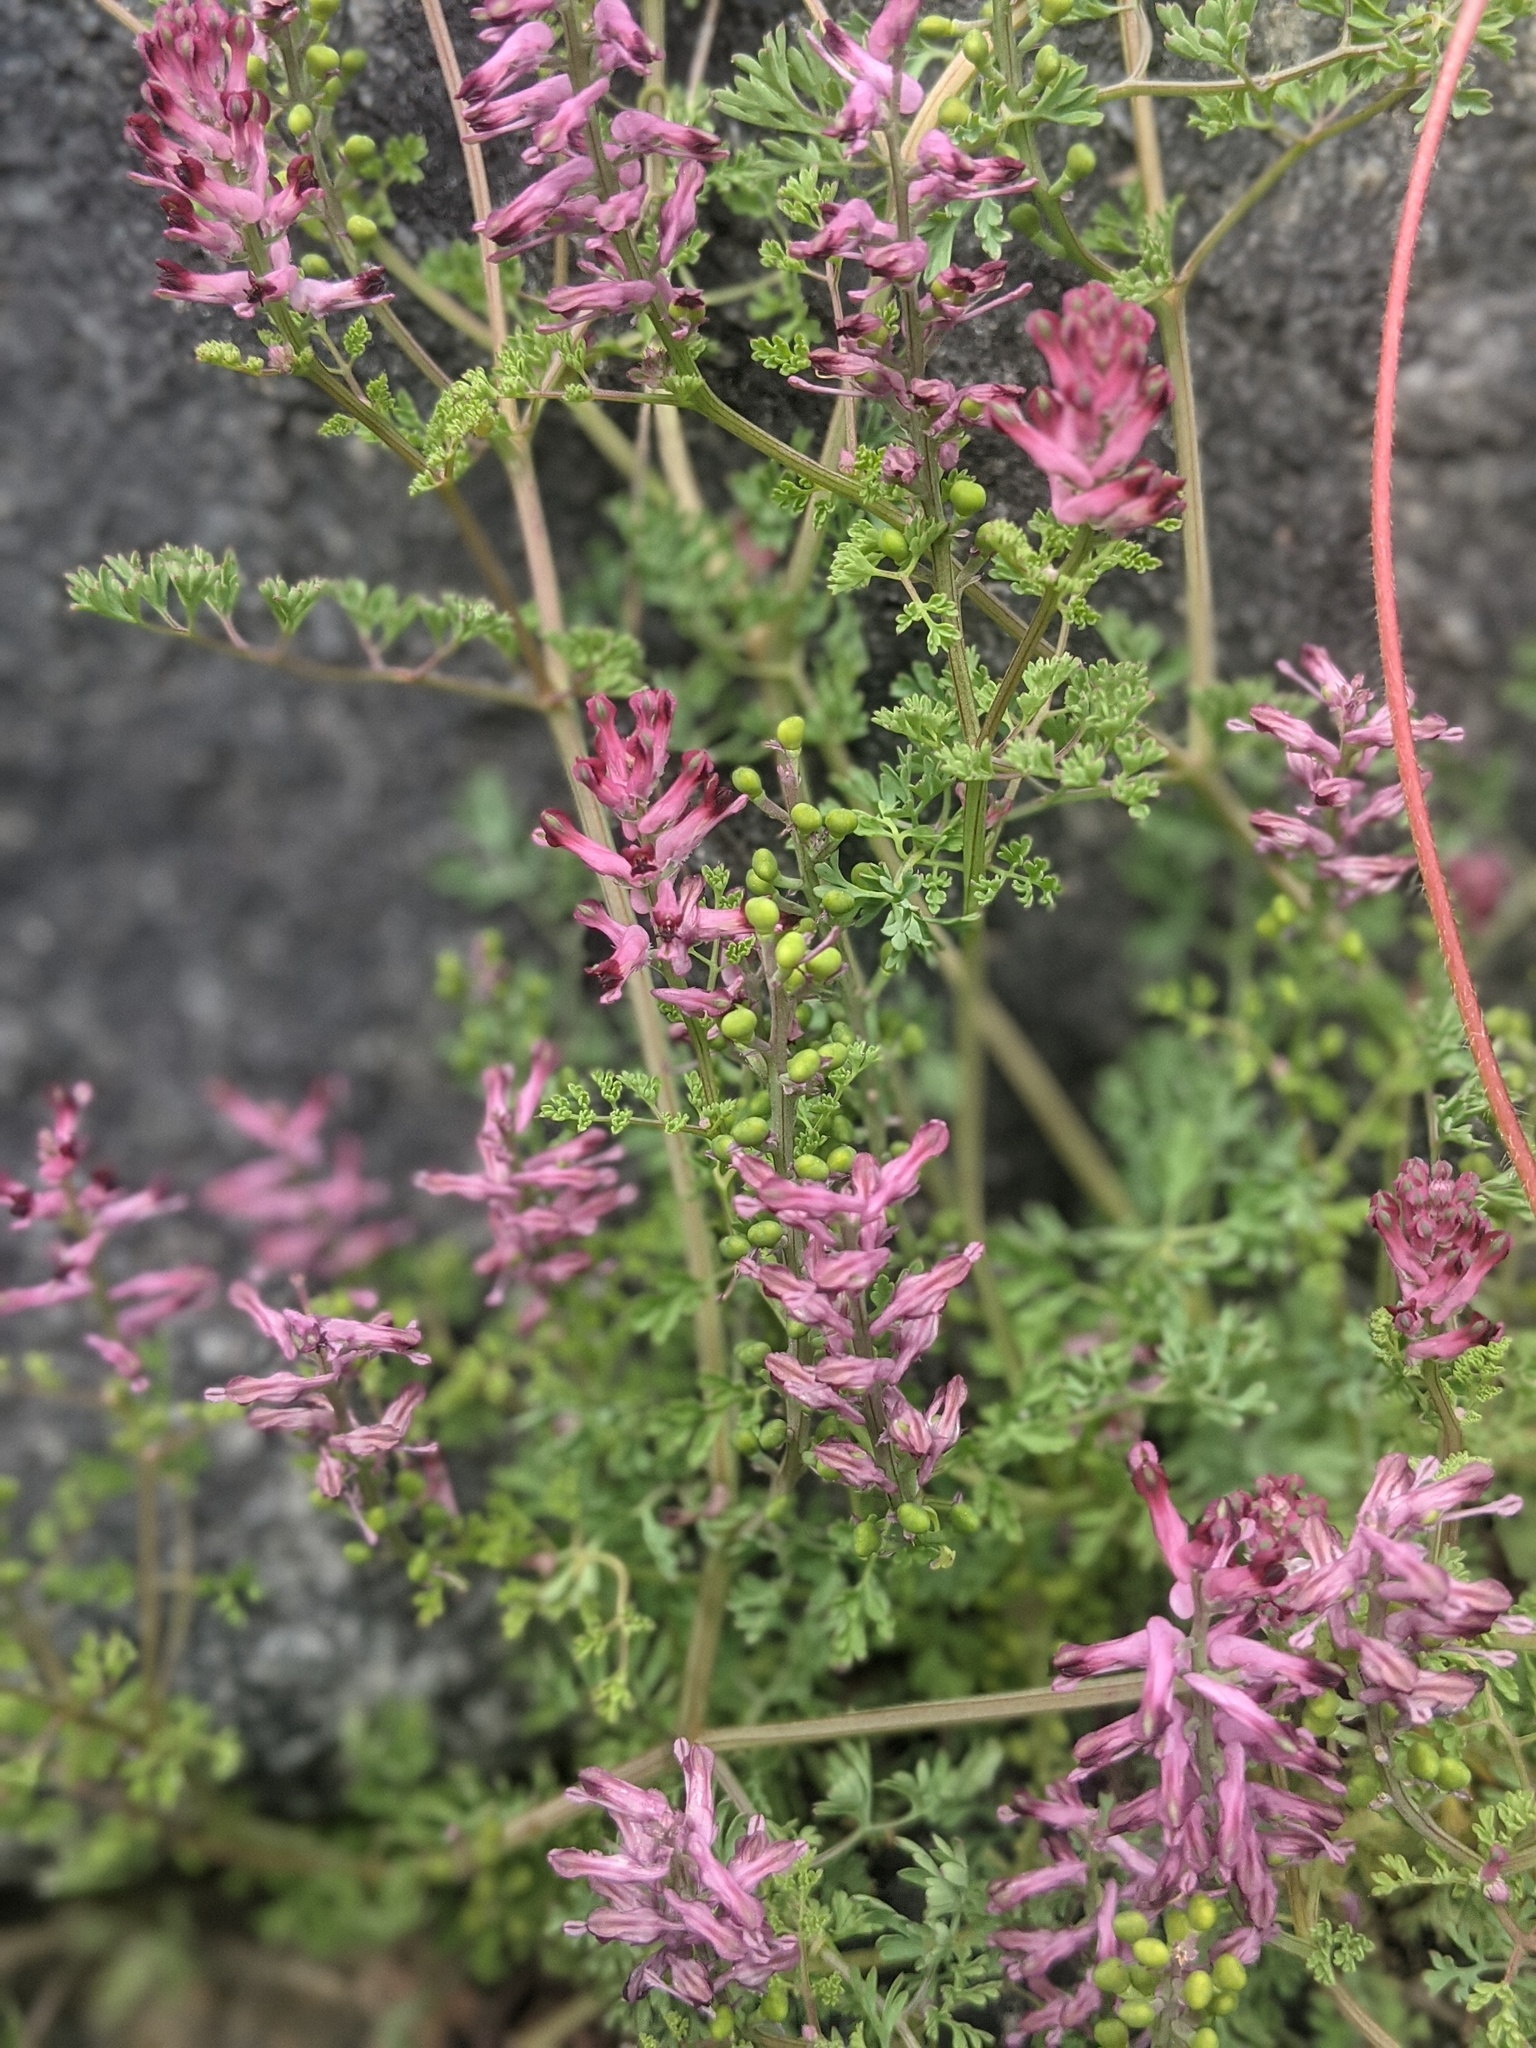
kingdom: Plantae
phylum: Tracheophyta
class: Magnoliopsida
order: Ranunculales
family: Papaveraceae
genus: Fumaria
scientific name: Fumaria officinalis
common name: Common fumitory
